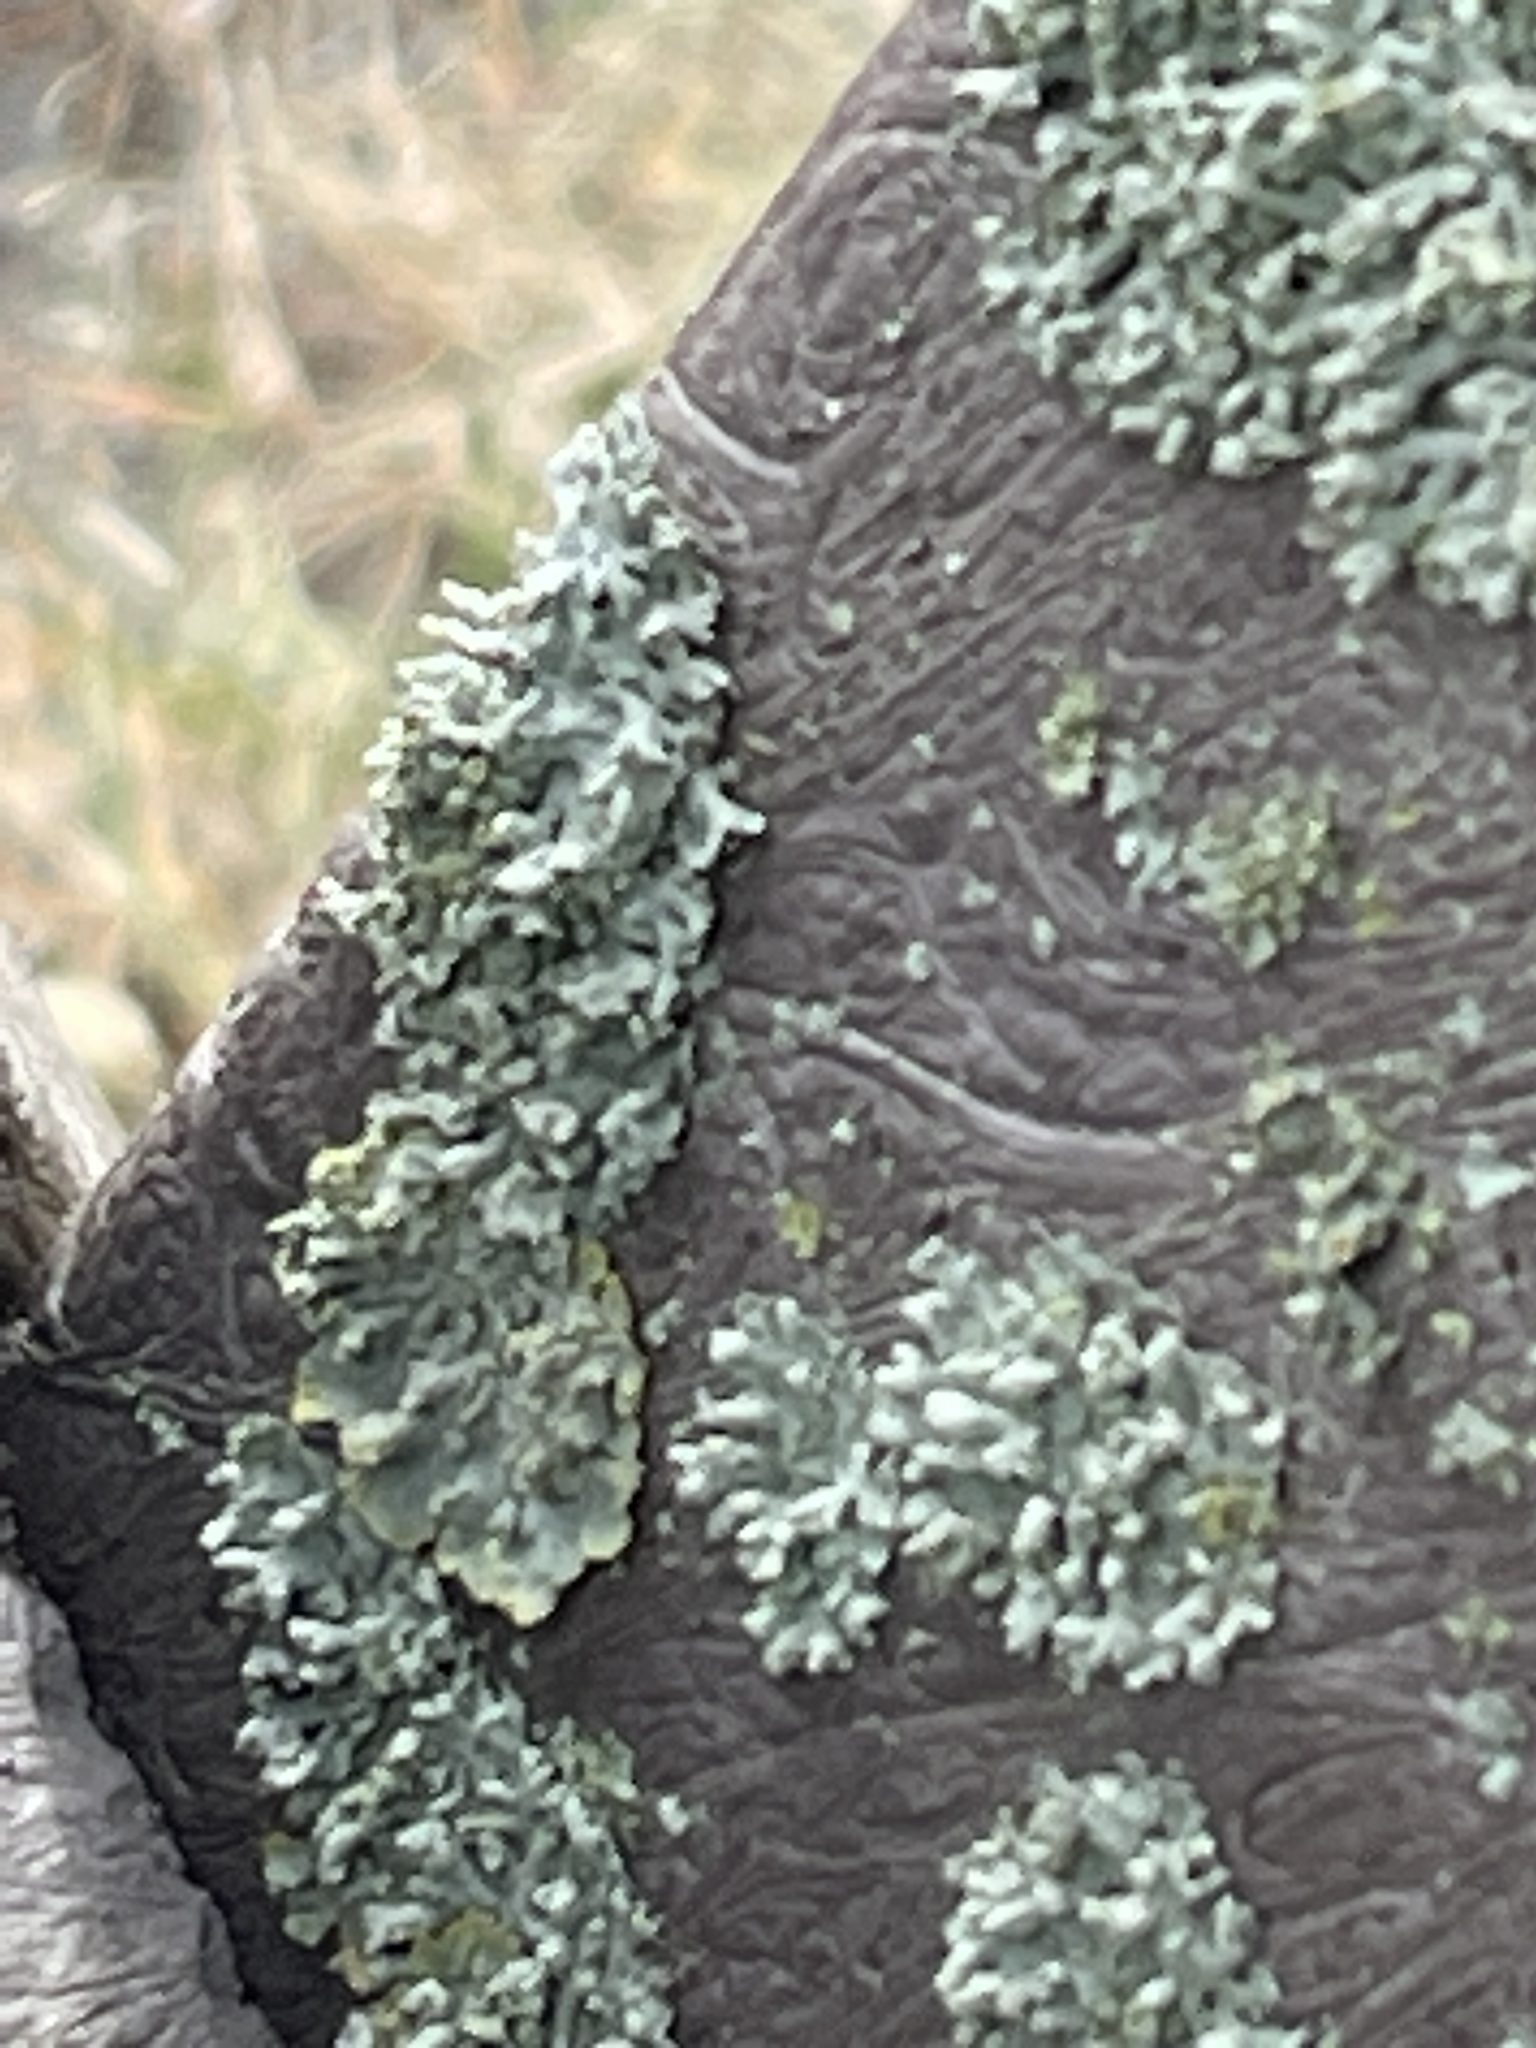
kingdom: Fungi
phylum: Ascomycota
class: Lecanoromycetes
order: Caliciales
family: Physciaceae
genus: Physcia
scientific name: Physcia adscendens
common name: Hooded rosette lichen
